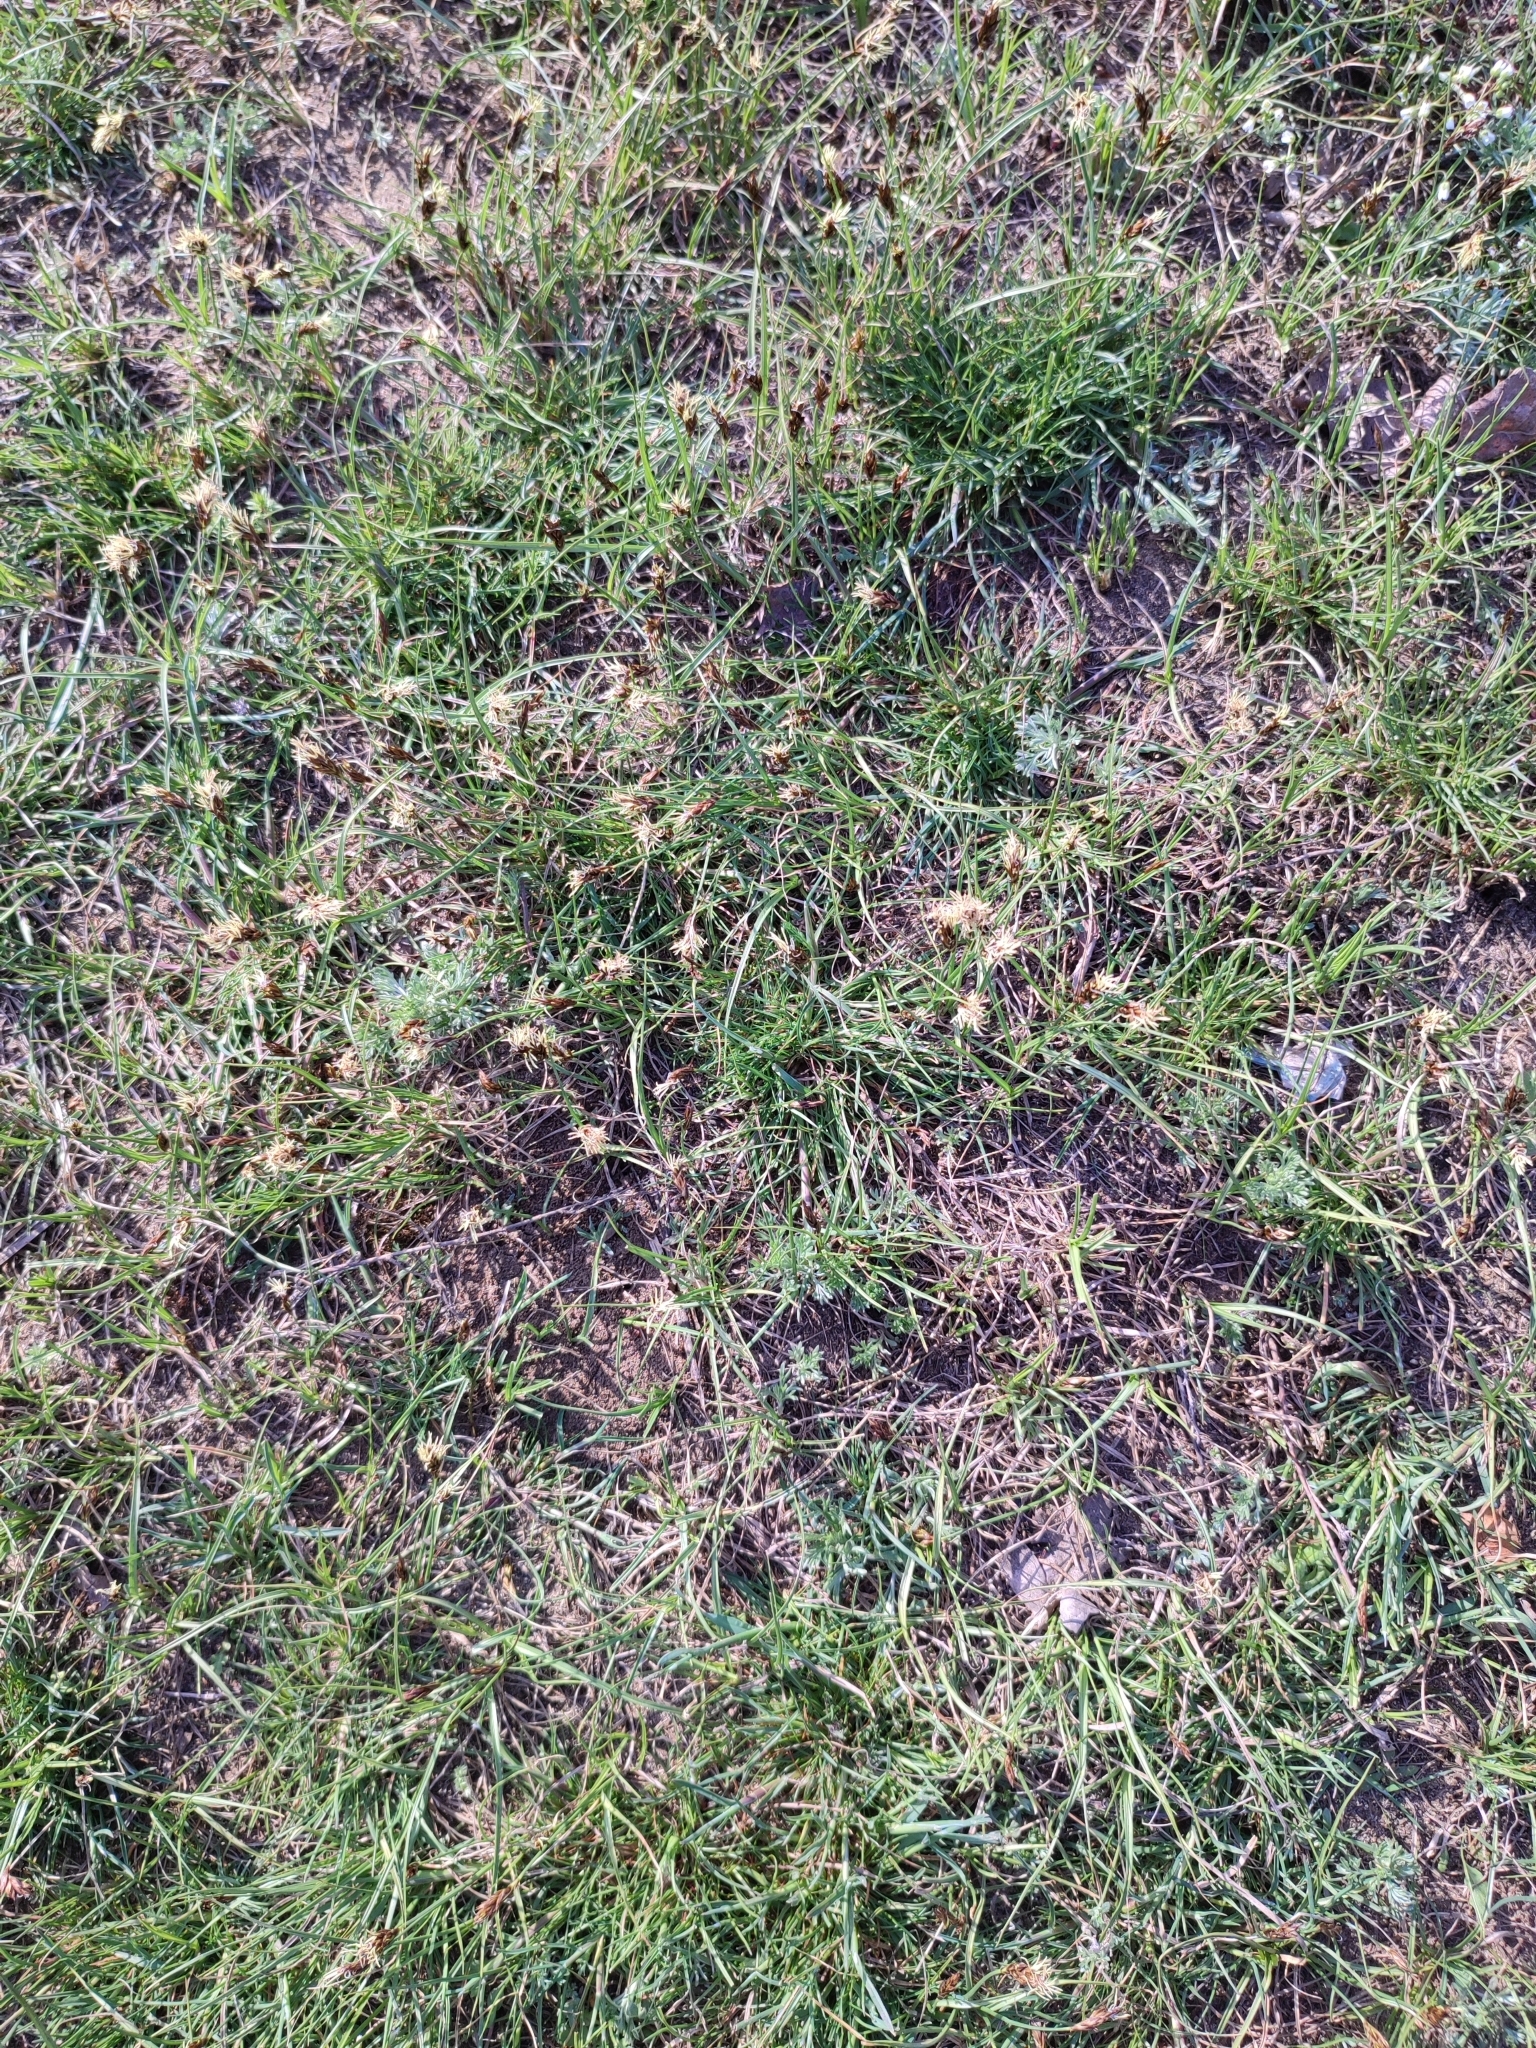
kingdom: Plantae
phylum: Tracheophyta
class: Liliopsida
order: Poales
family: Cyperaceae
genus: Carex
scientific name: Carex stenophylla
